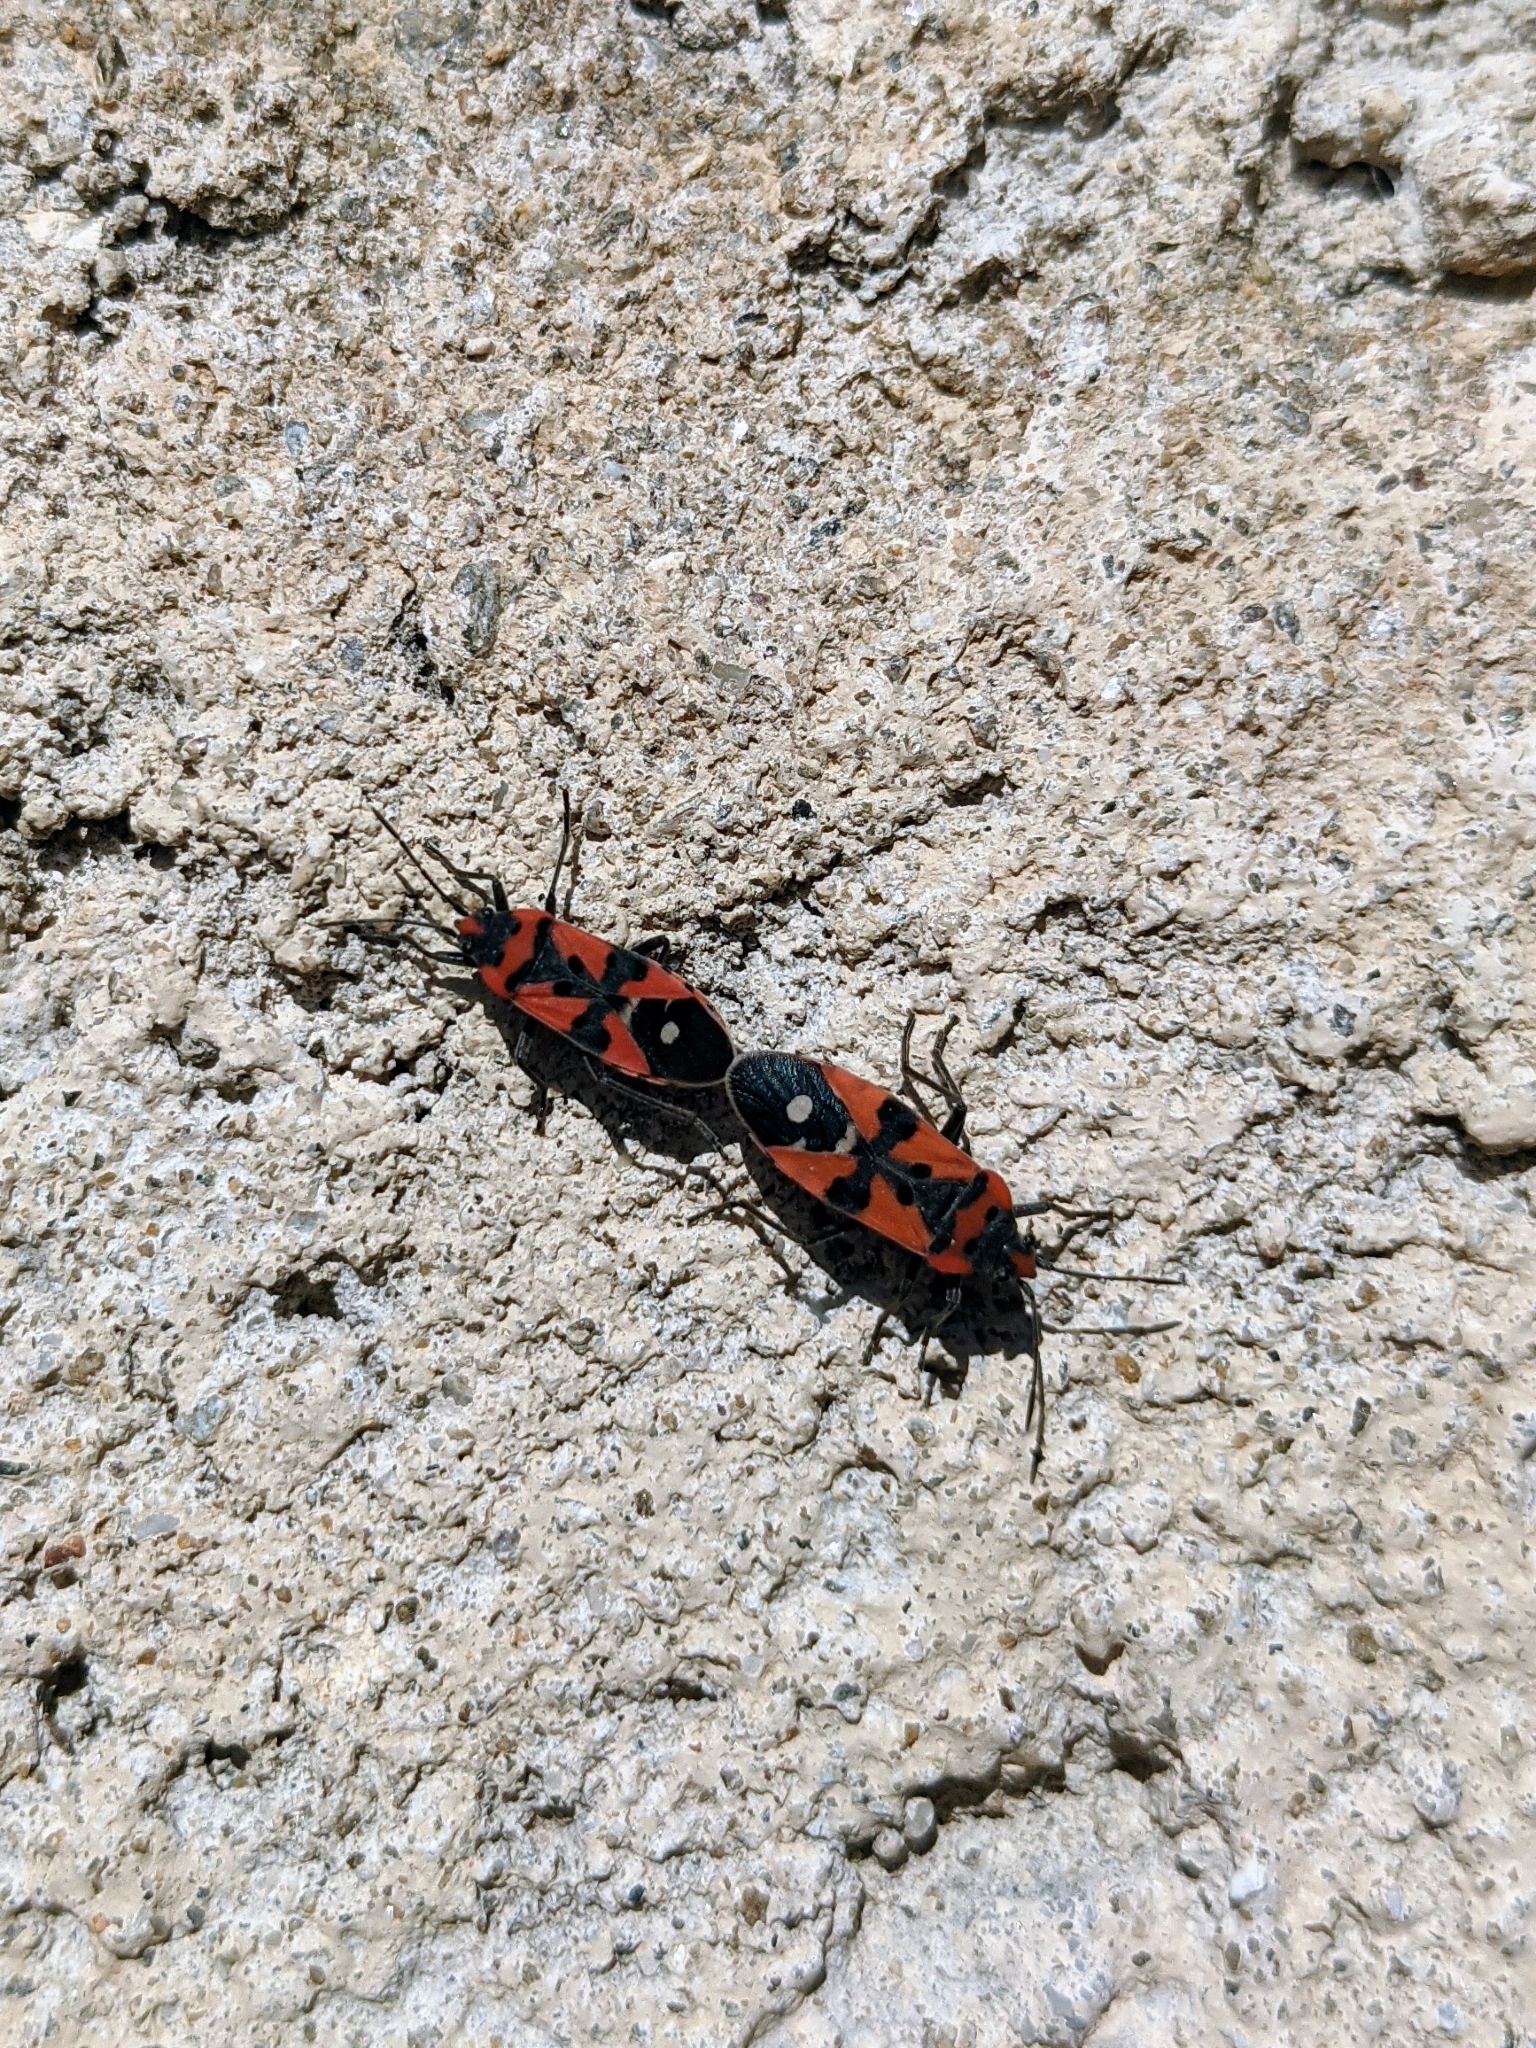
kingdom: Animalia
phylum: Arthropoda
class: Insecta
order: Hemiptera
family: Lygaeidae
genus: Lygaeus
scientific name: Lygaeus equestris
